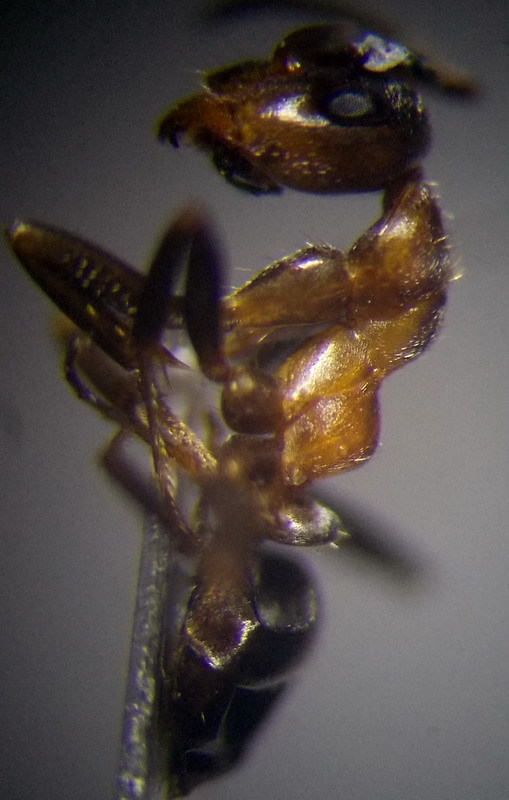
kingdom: Animalia
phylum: Arthropoda
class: Insecta
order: Hymenoptera
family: Formicidae
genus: Formica
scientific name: Formica rufibarbis
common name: Red barbed ant
